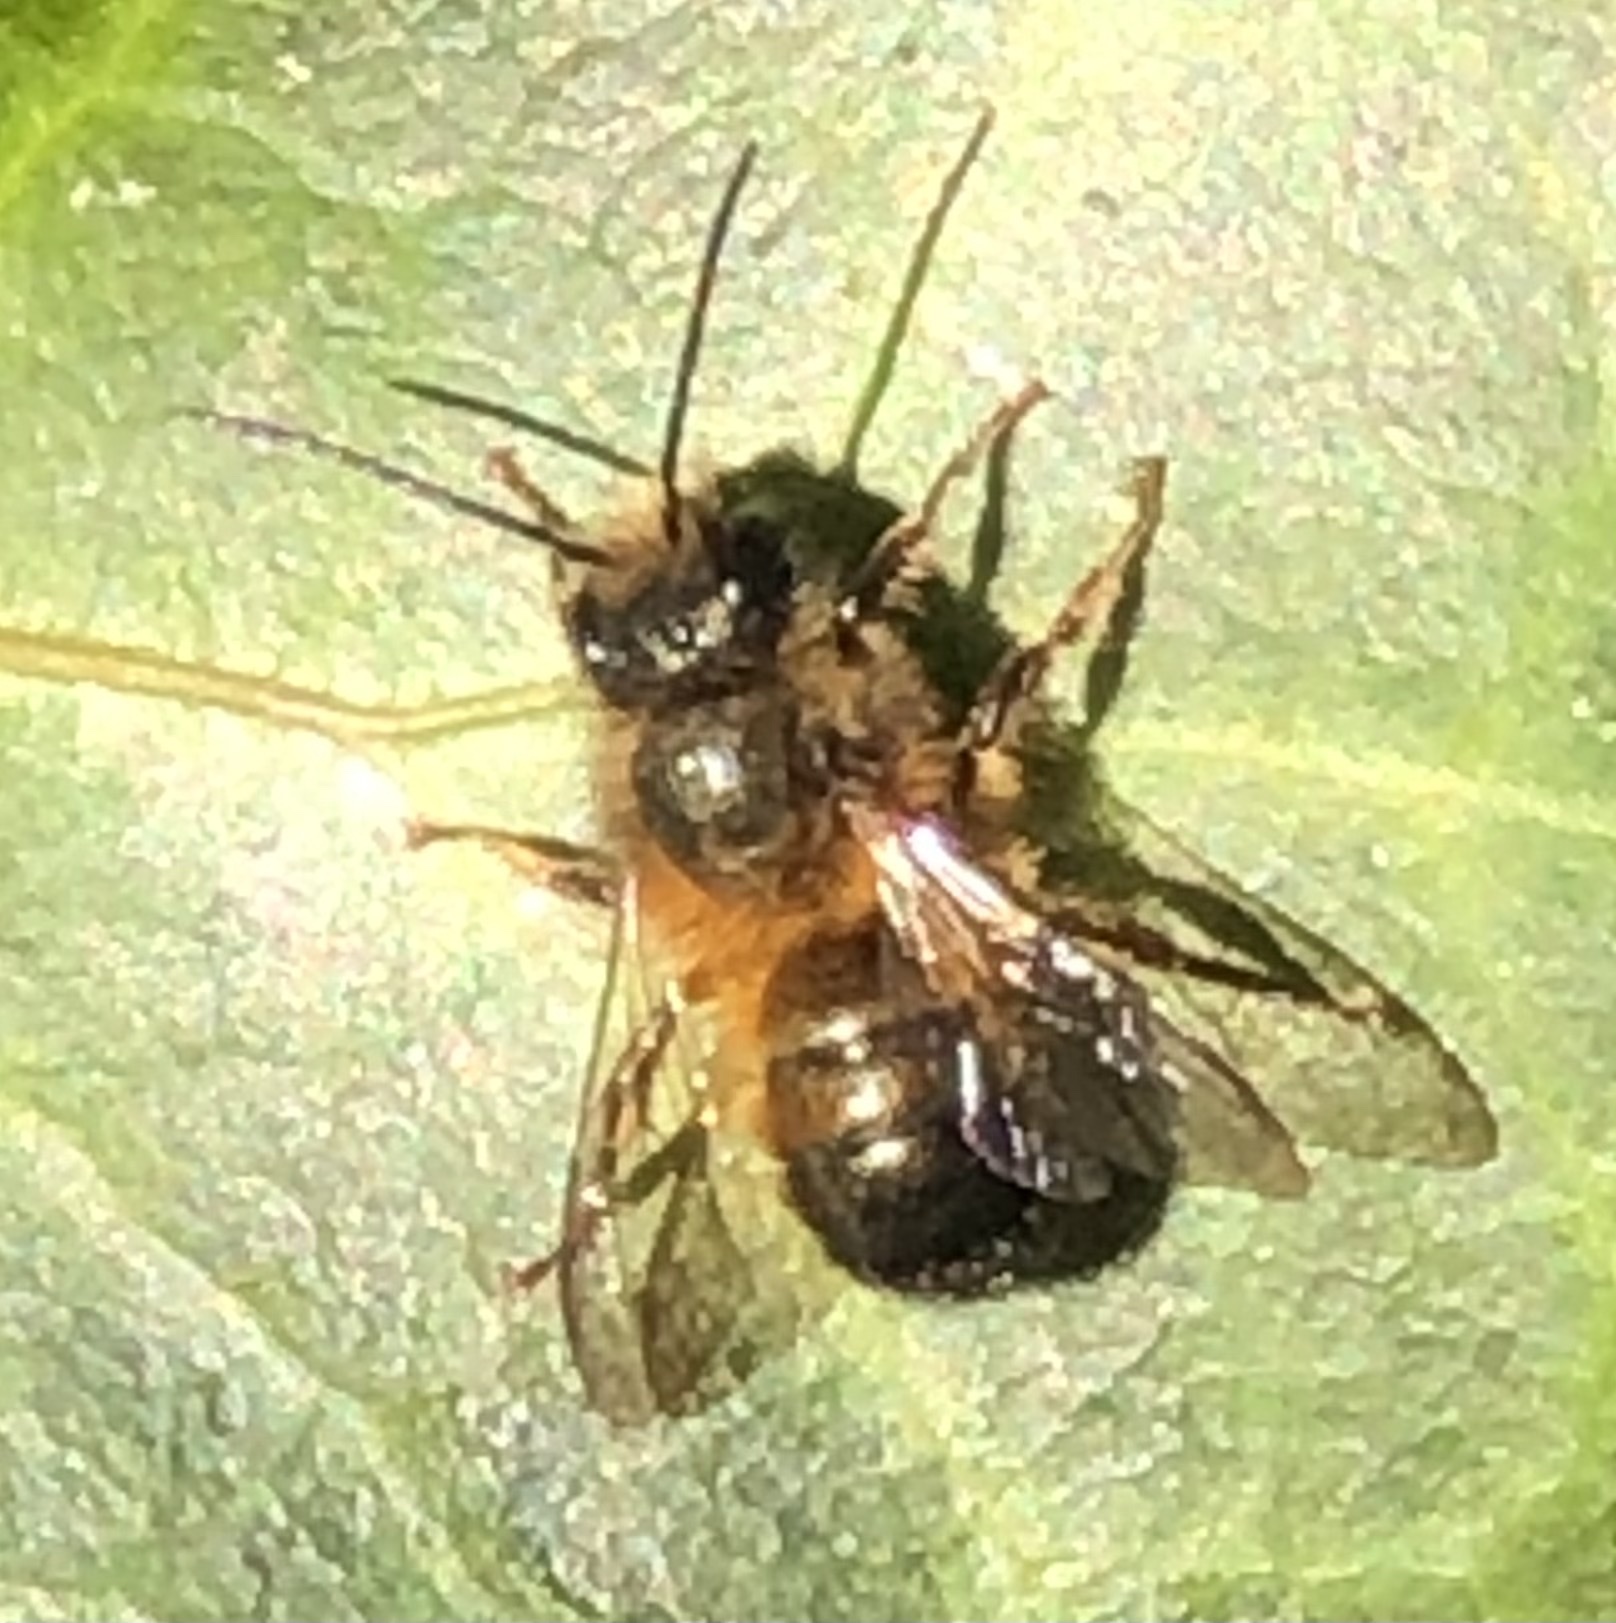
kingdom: Animalia
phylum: Arthropoda
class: Insecta
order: Hymenoptera
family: Megachilidae
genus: Osmia
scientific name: Osmia taurus
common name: Taurus mason bee
